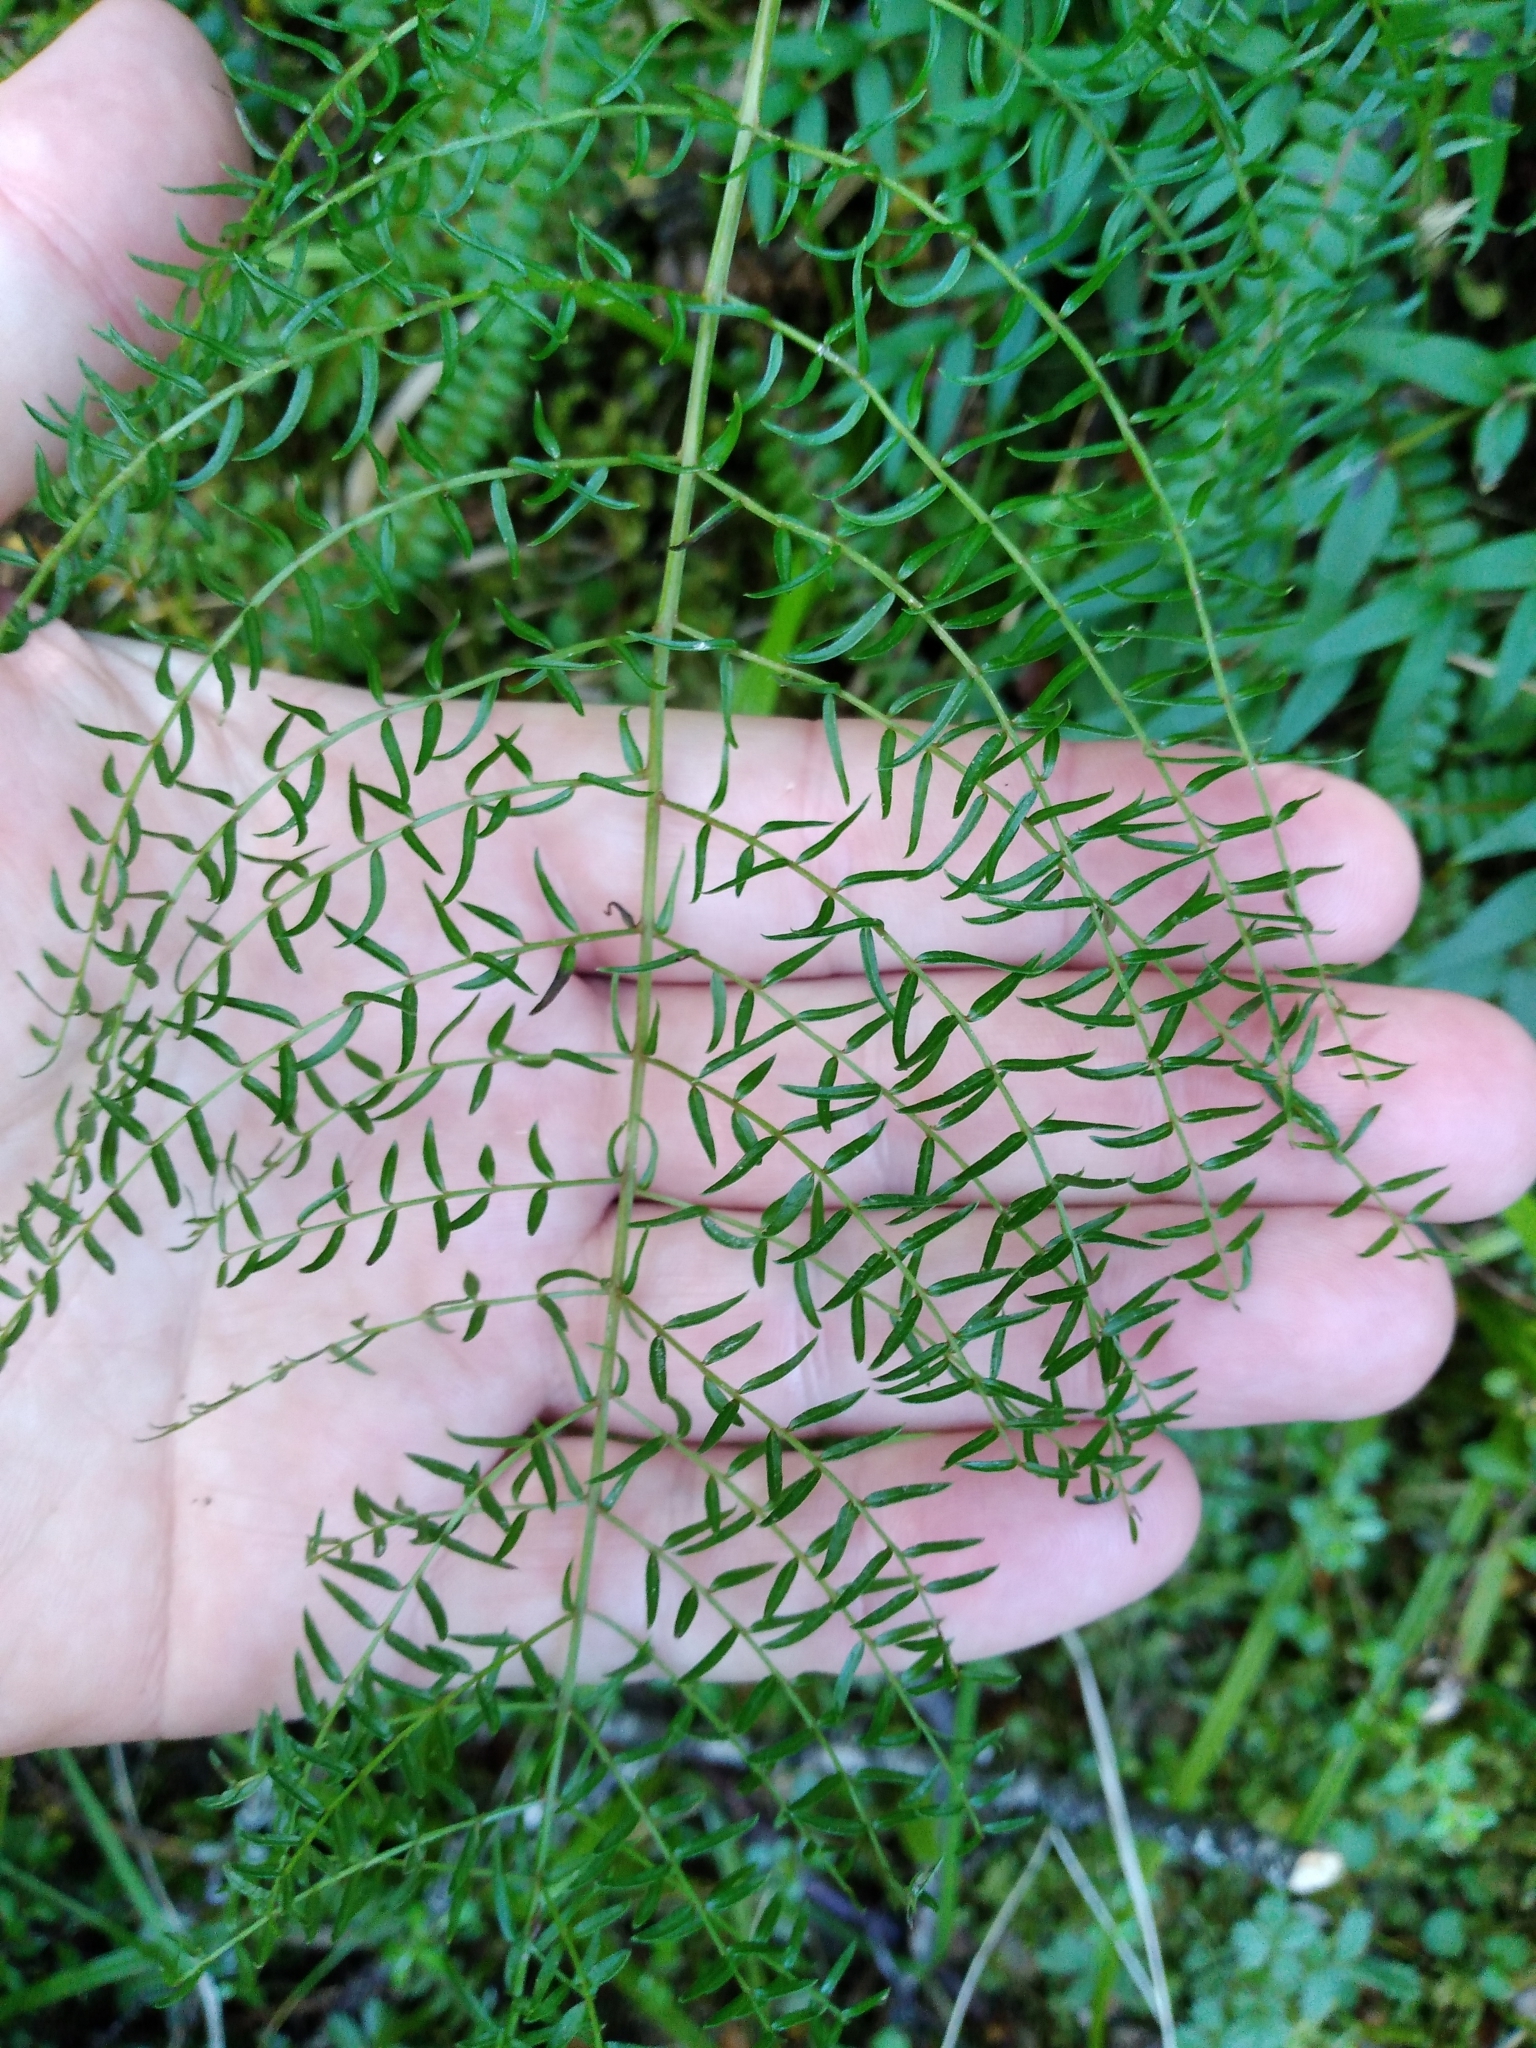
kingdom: Plantae
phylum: Tracheophyta
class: Magnoliopsida
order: Cucurbitales
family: Coriariaceae
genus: Coriaria
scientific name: Coriaria angustissima
